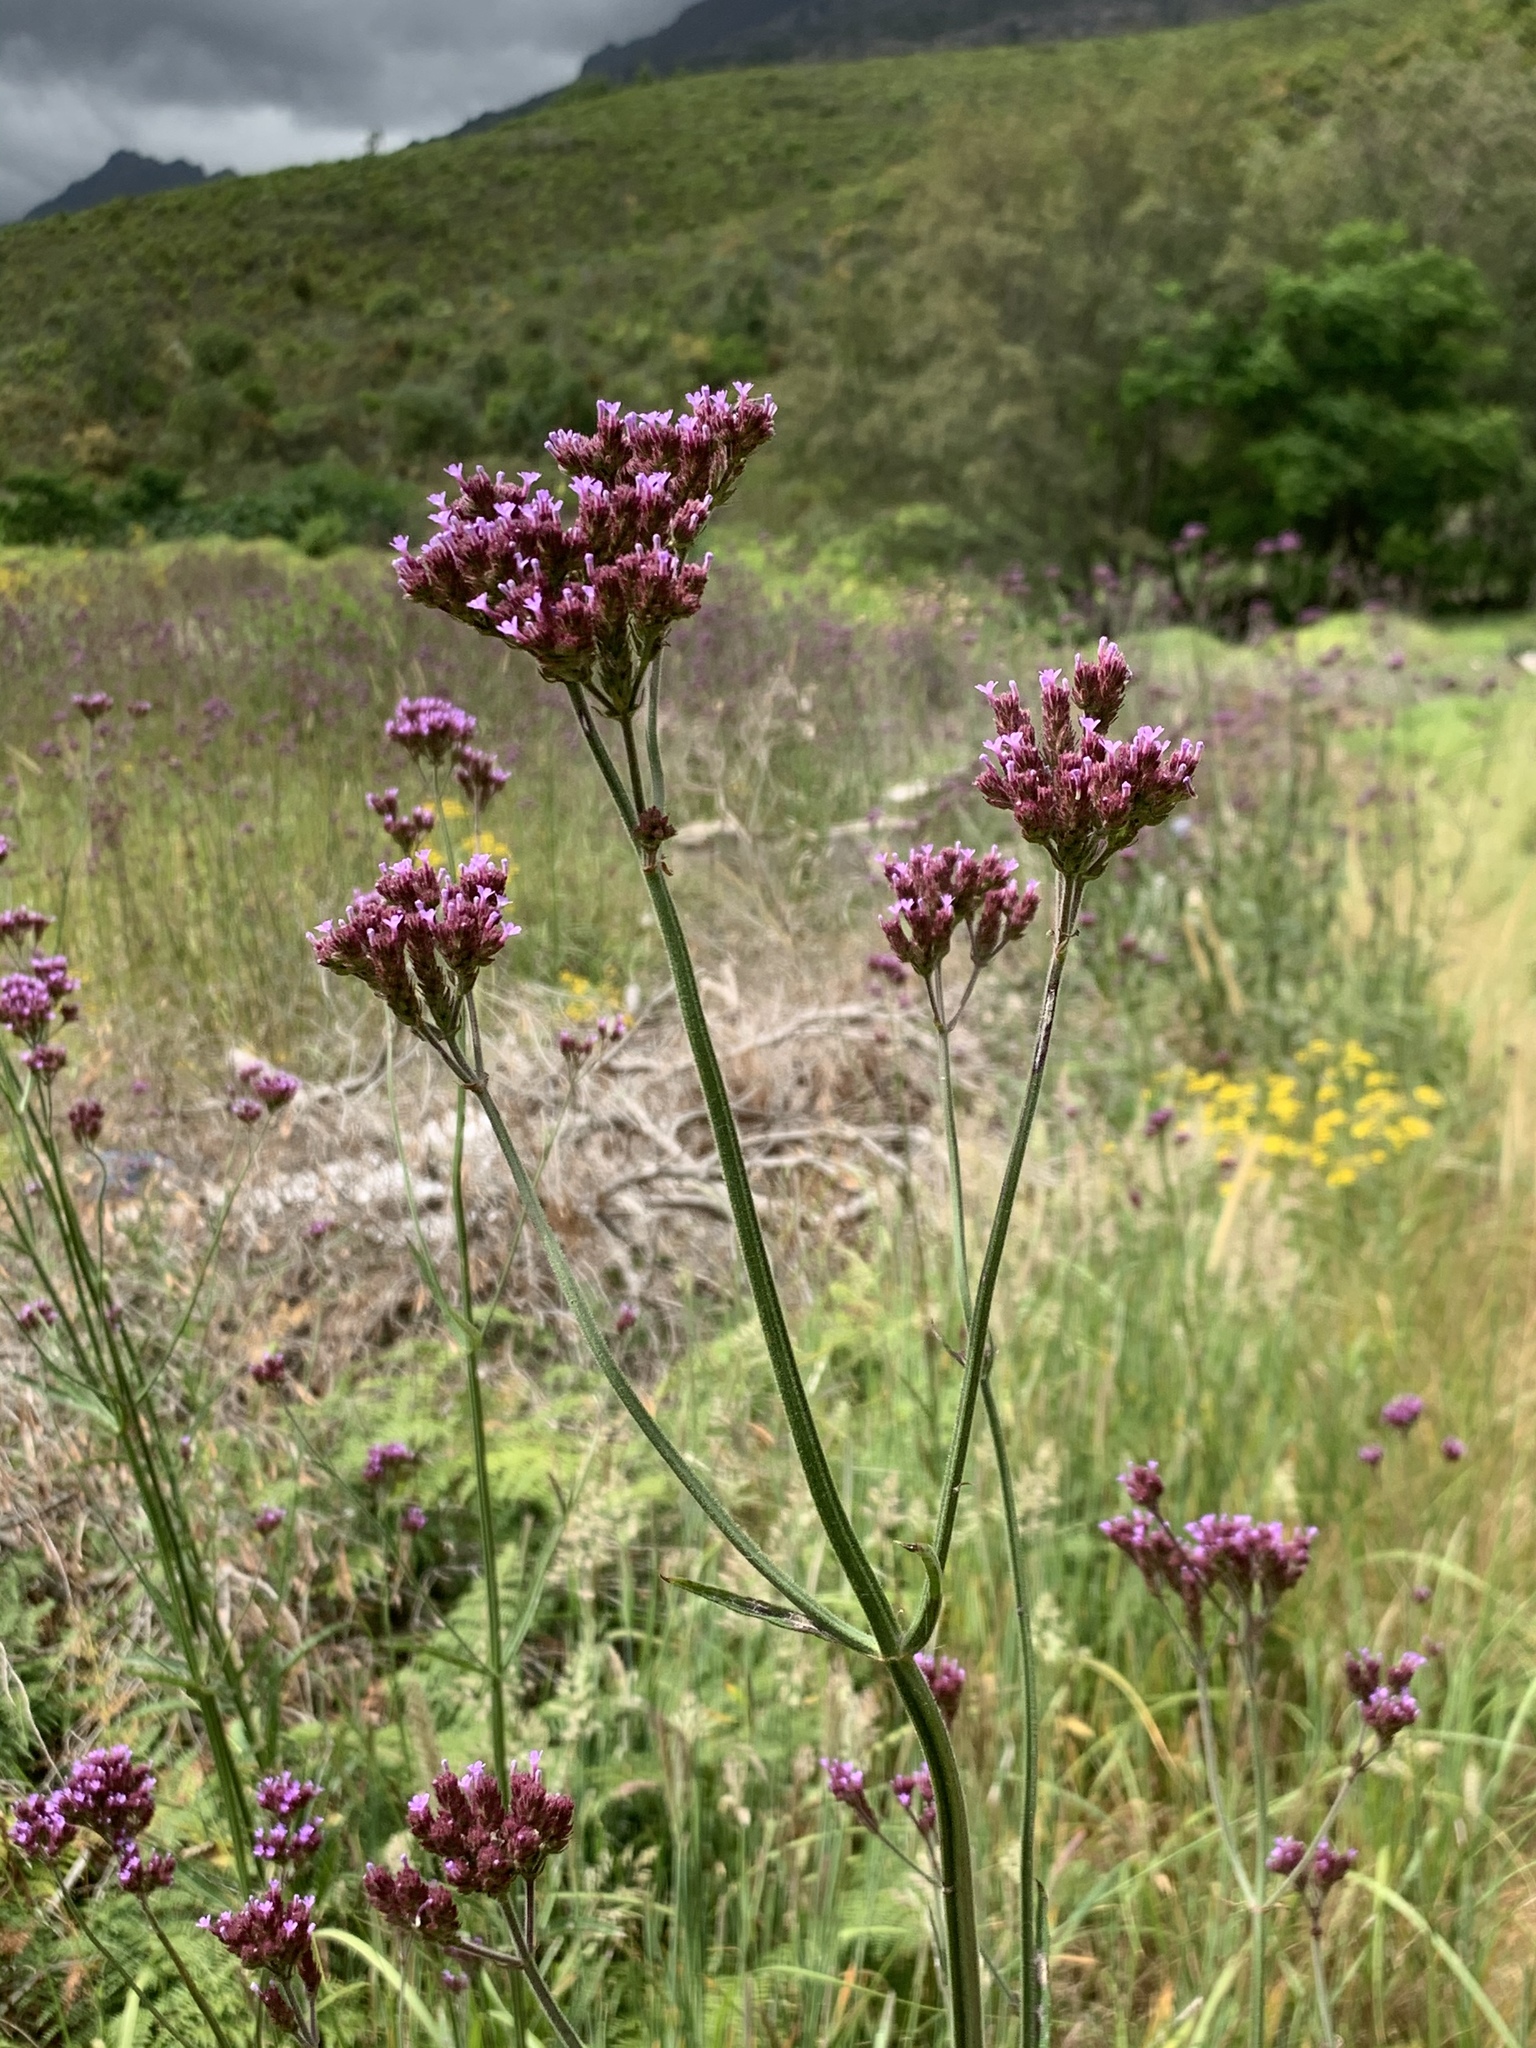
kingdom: Plantae
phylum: Tracheophyta
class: Magnoliopsida
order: Lamiales
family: Verbenaceae
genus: Verbena
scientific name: Verbena bonariensis
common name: Purpletop vervain
